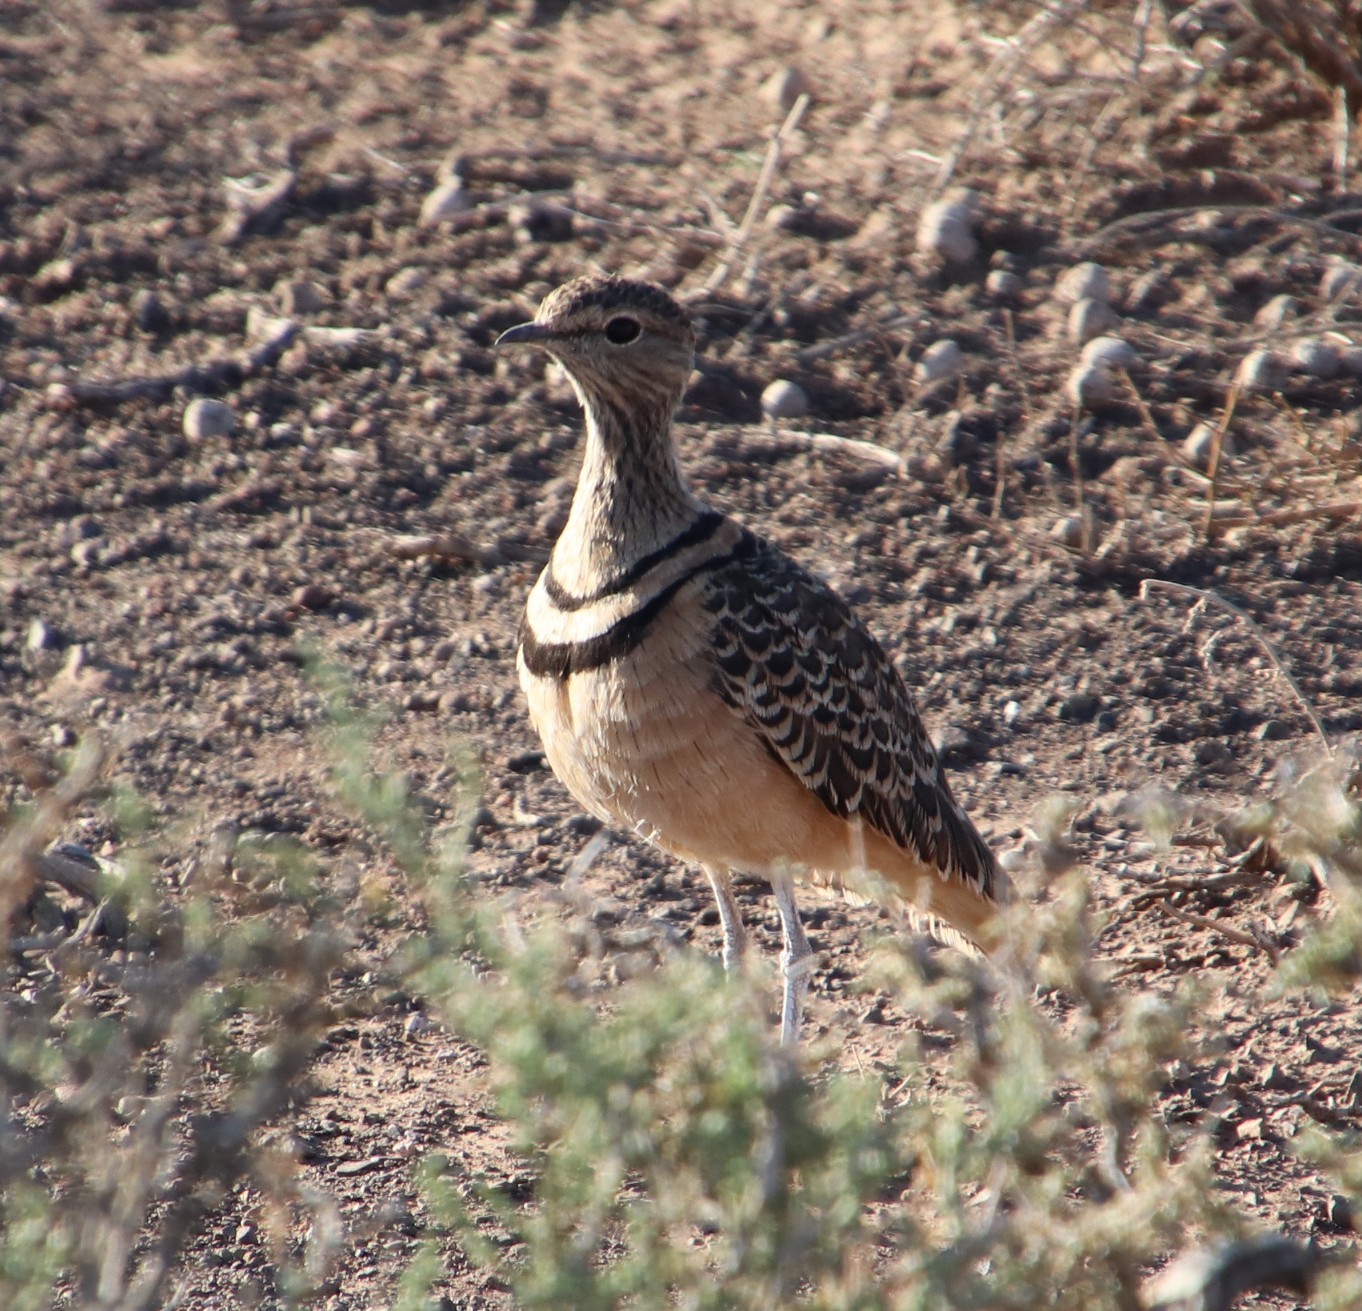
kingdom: Animalia
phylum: Chordata
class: Aves
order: Charadriiformes
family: Glareolidae
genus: Rhinoptilus
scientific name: Rhinoptilus africanus
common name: Double-banded courser
